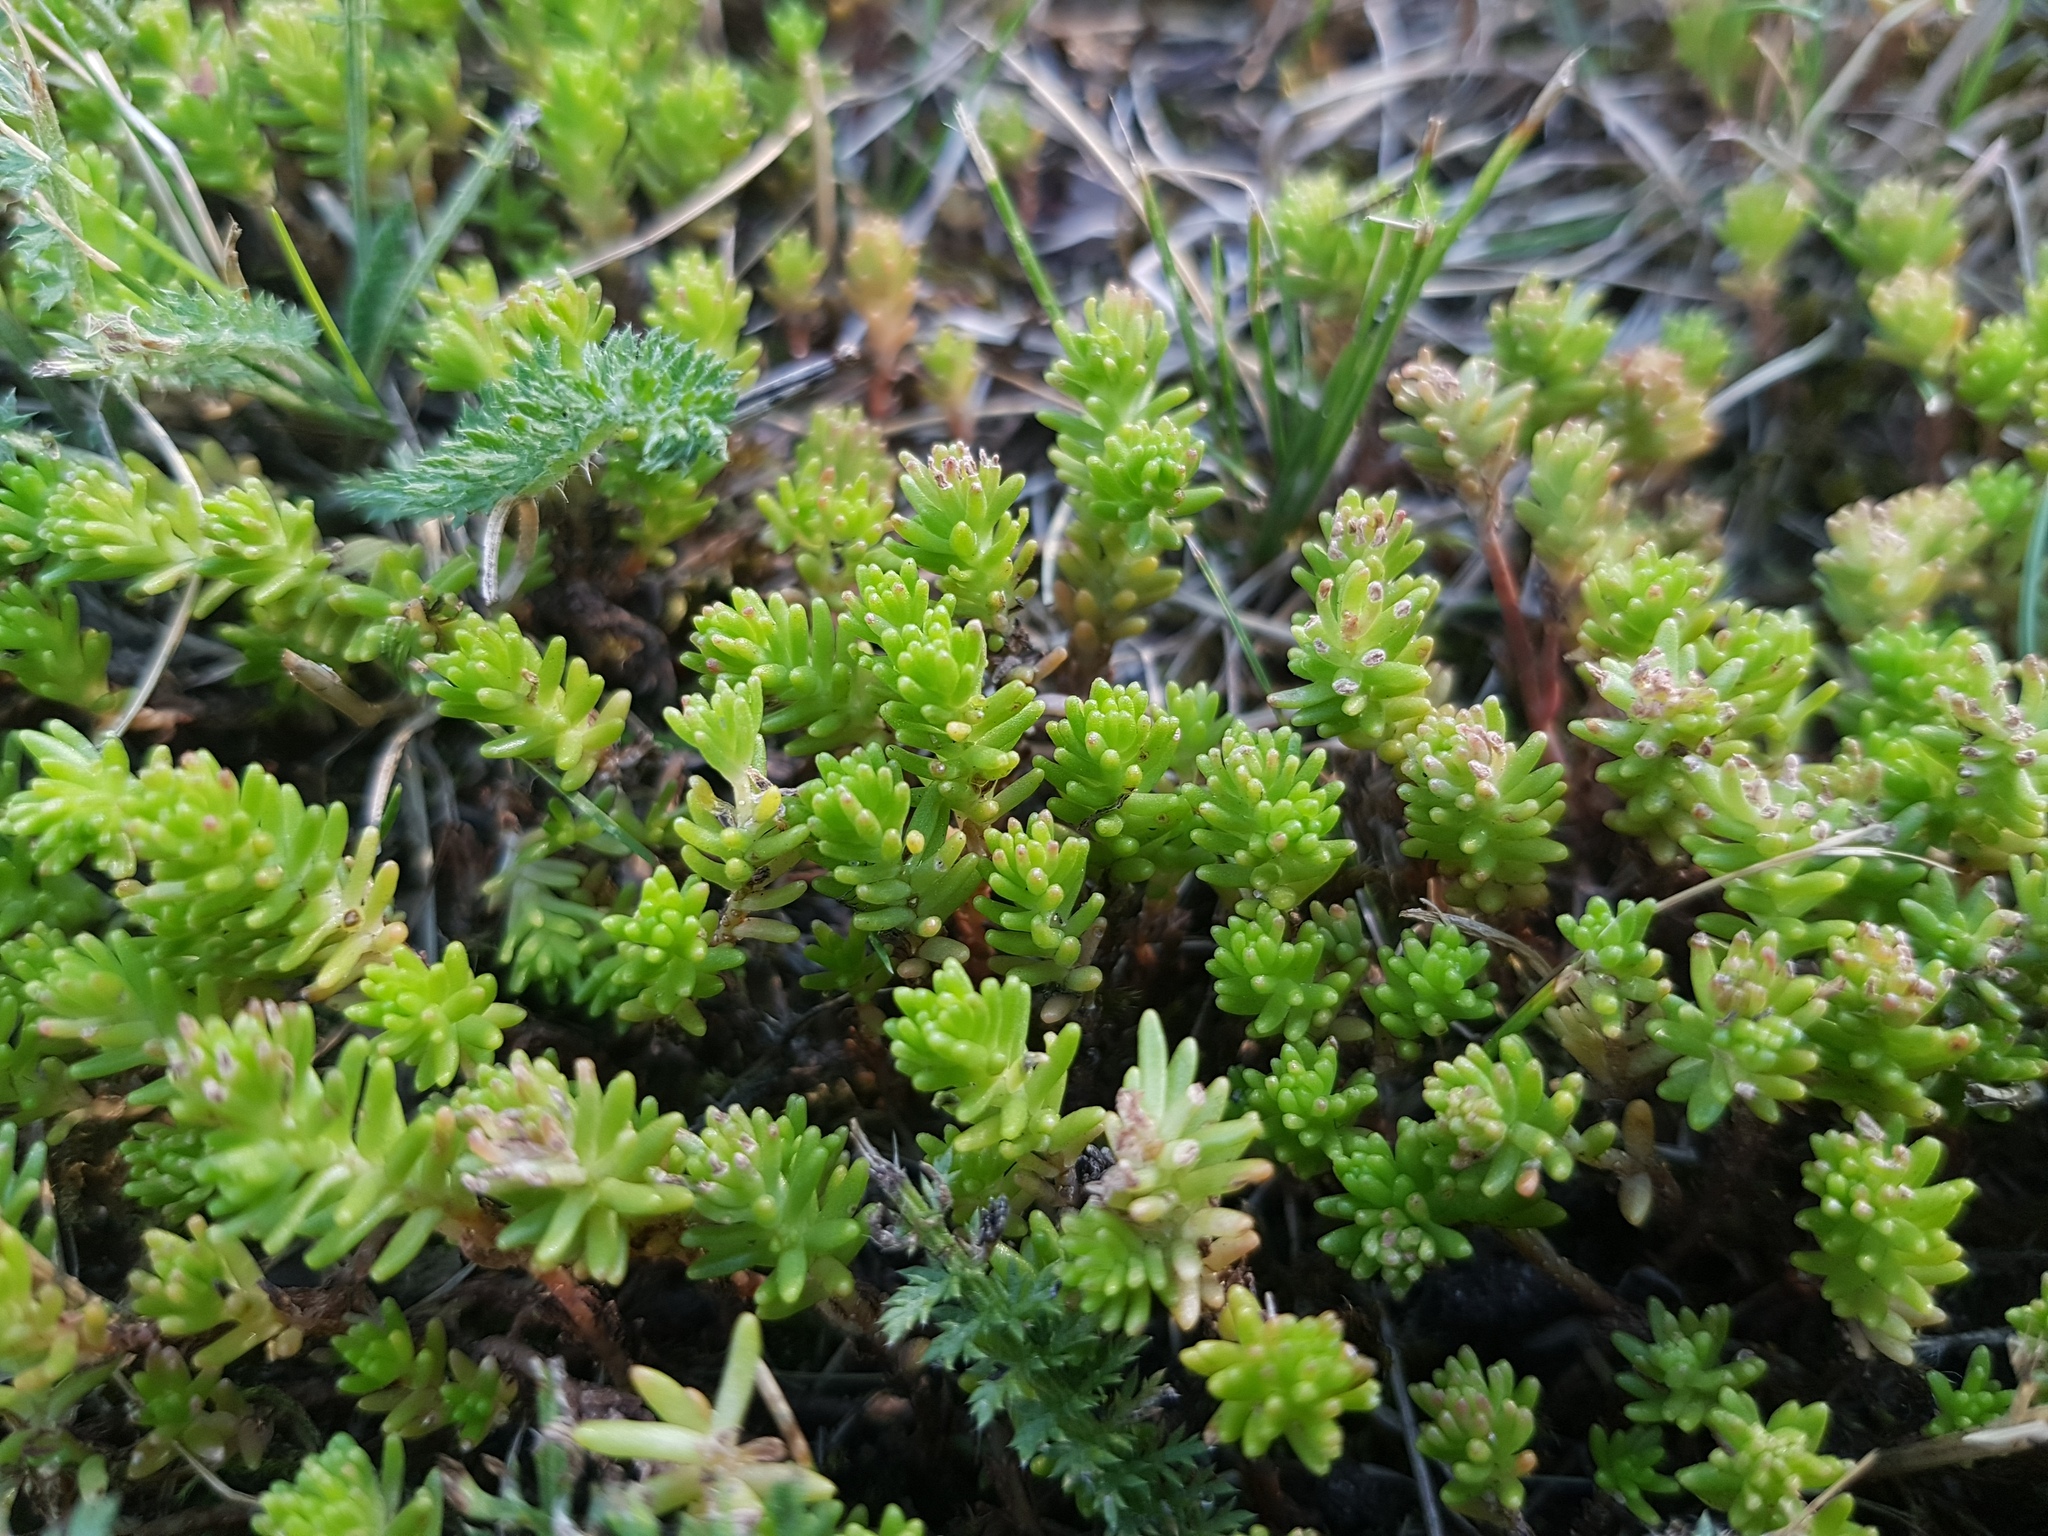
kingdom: Plantae
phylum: Tracheophyta
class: Magnoliopsida
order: Saxifragales
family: Crassulaceae
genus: Sedum
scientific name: Sedum sexangulare
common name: Tasteless stonecrop
